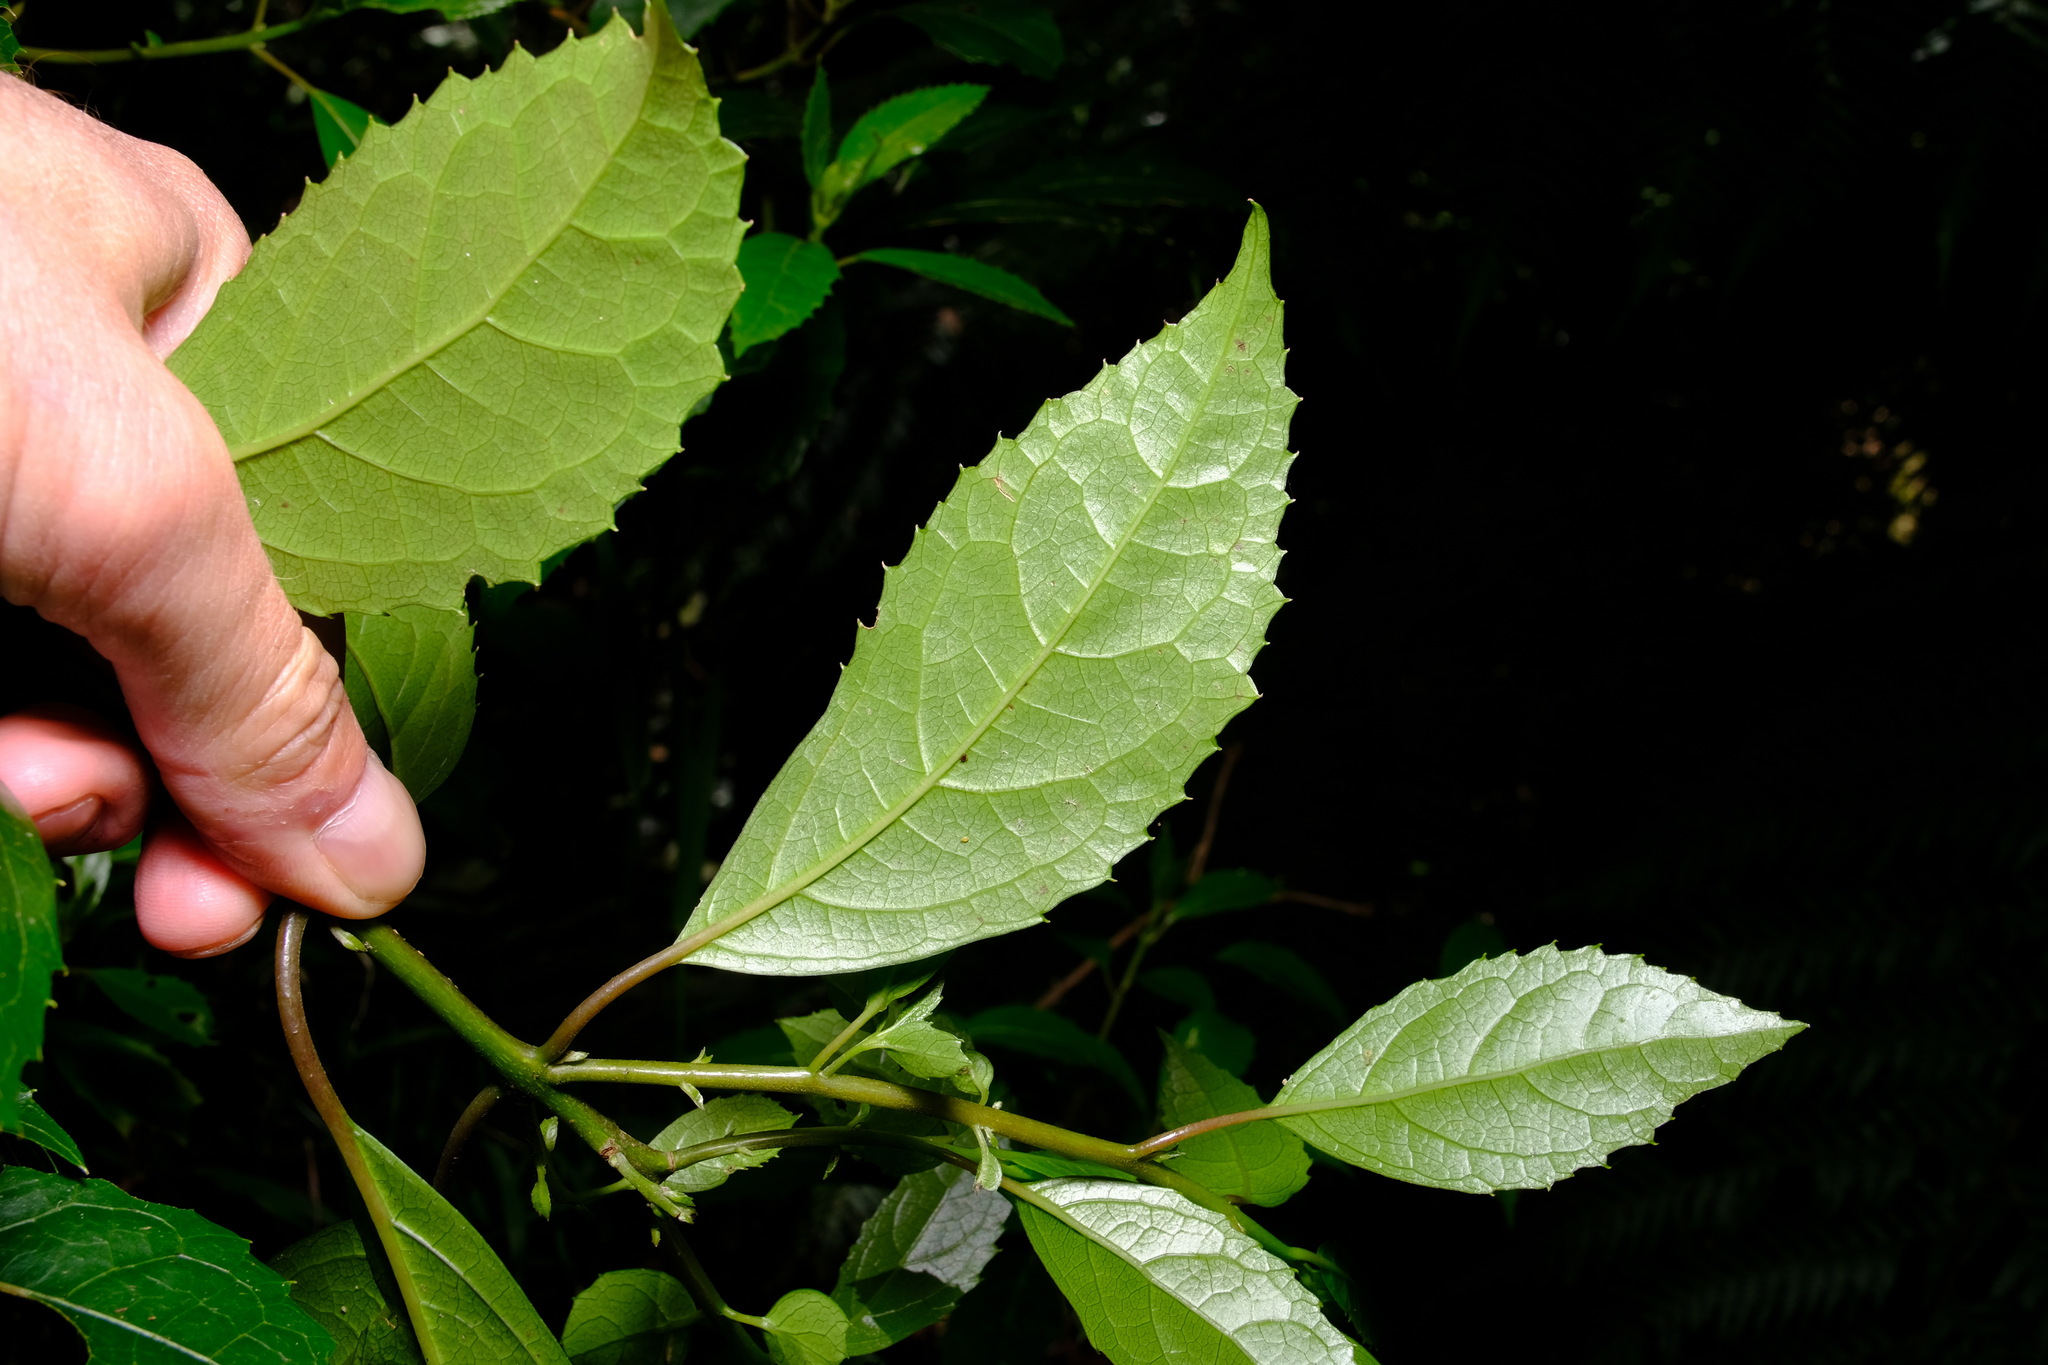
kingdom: Plantae
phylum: Tracheophyta
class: Magnoliopsida
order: Laurales
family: Monimiaceae
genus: Hedycarya
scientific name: Hedycarya angustifolia
